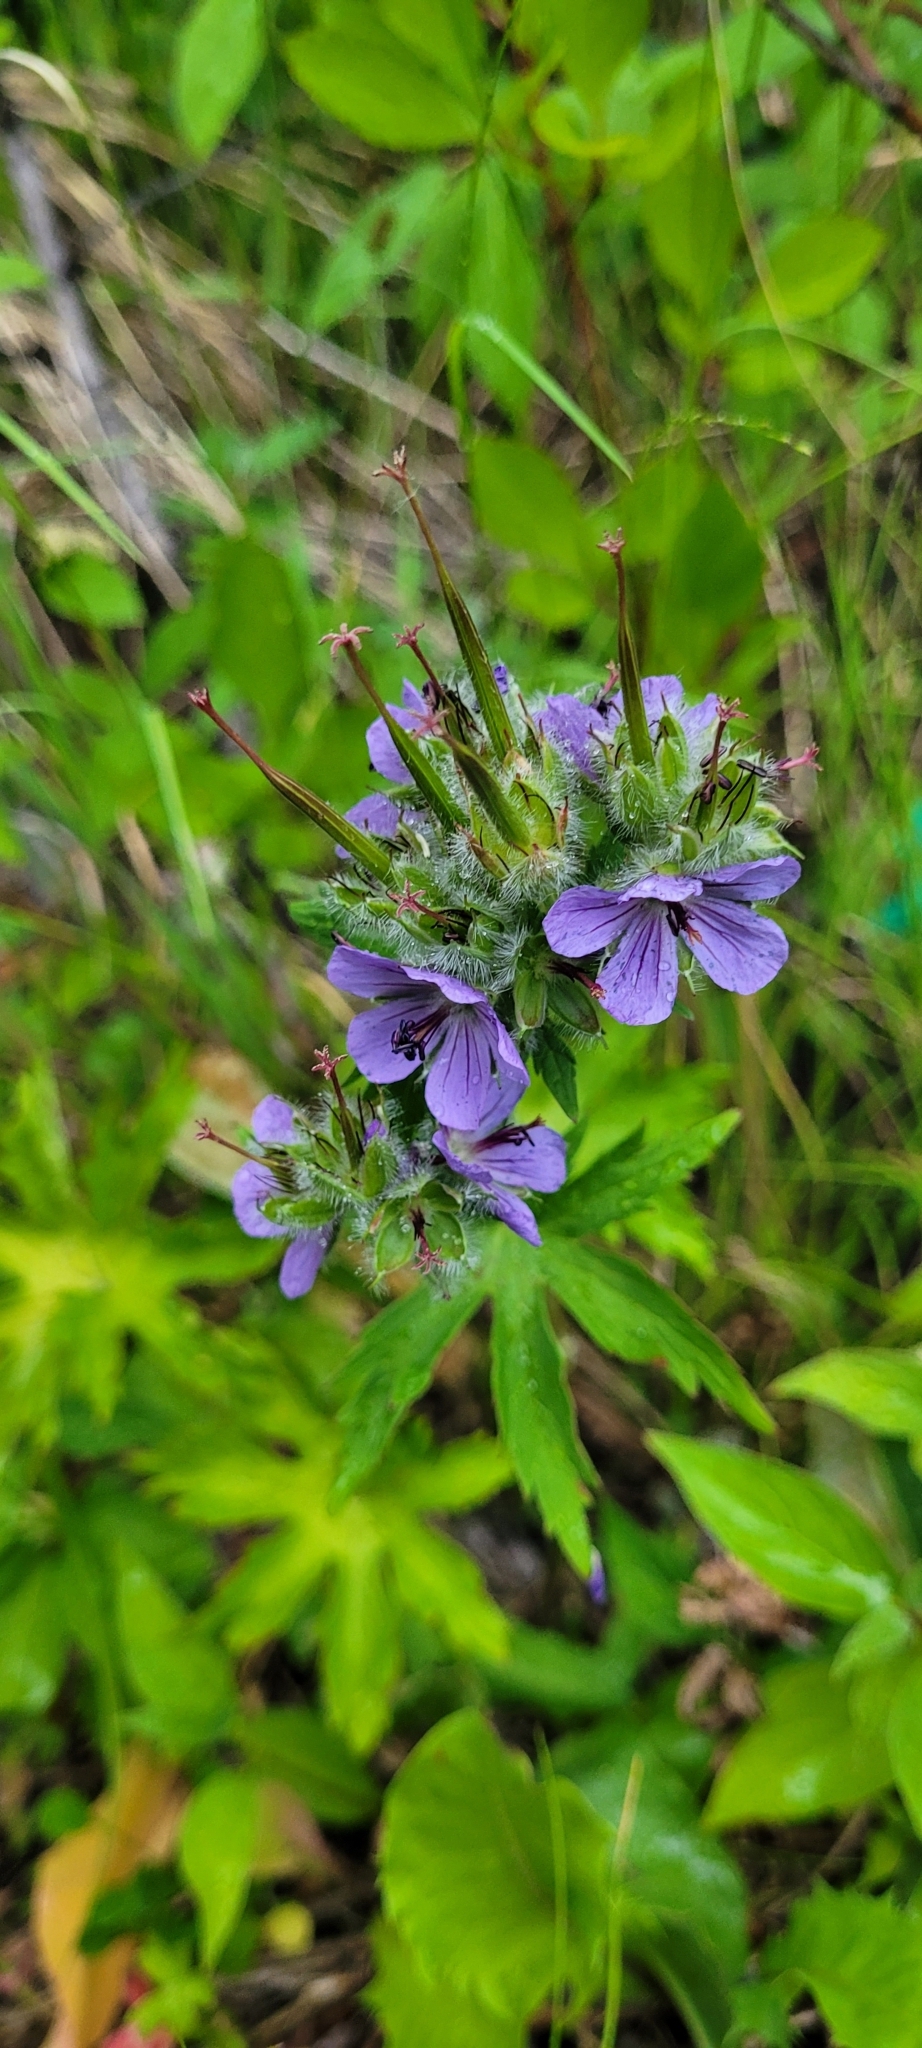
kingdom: Plantae
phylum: Tracheophyta
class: Magnoliopsida
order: Geraniales
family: Geraniaceae
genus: Geranium
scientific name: Geranium erianthum
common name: Northern crane's-bill
